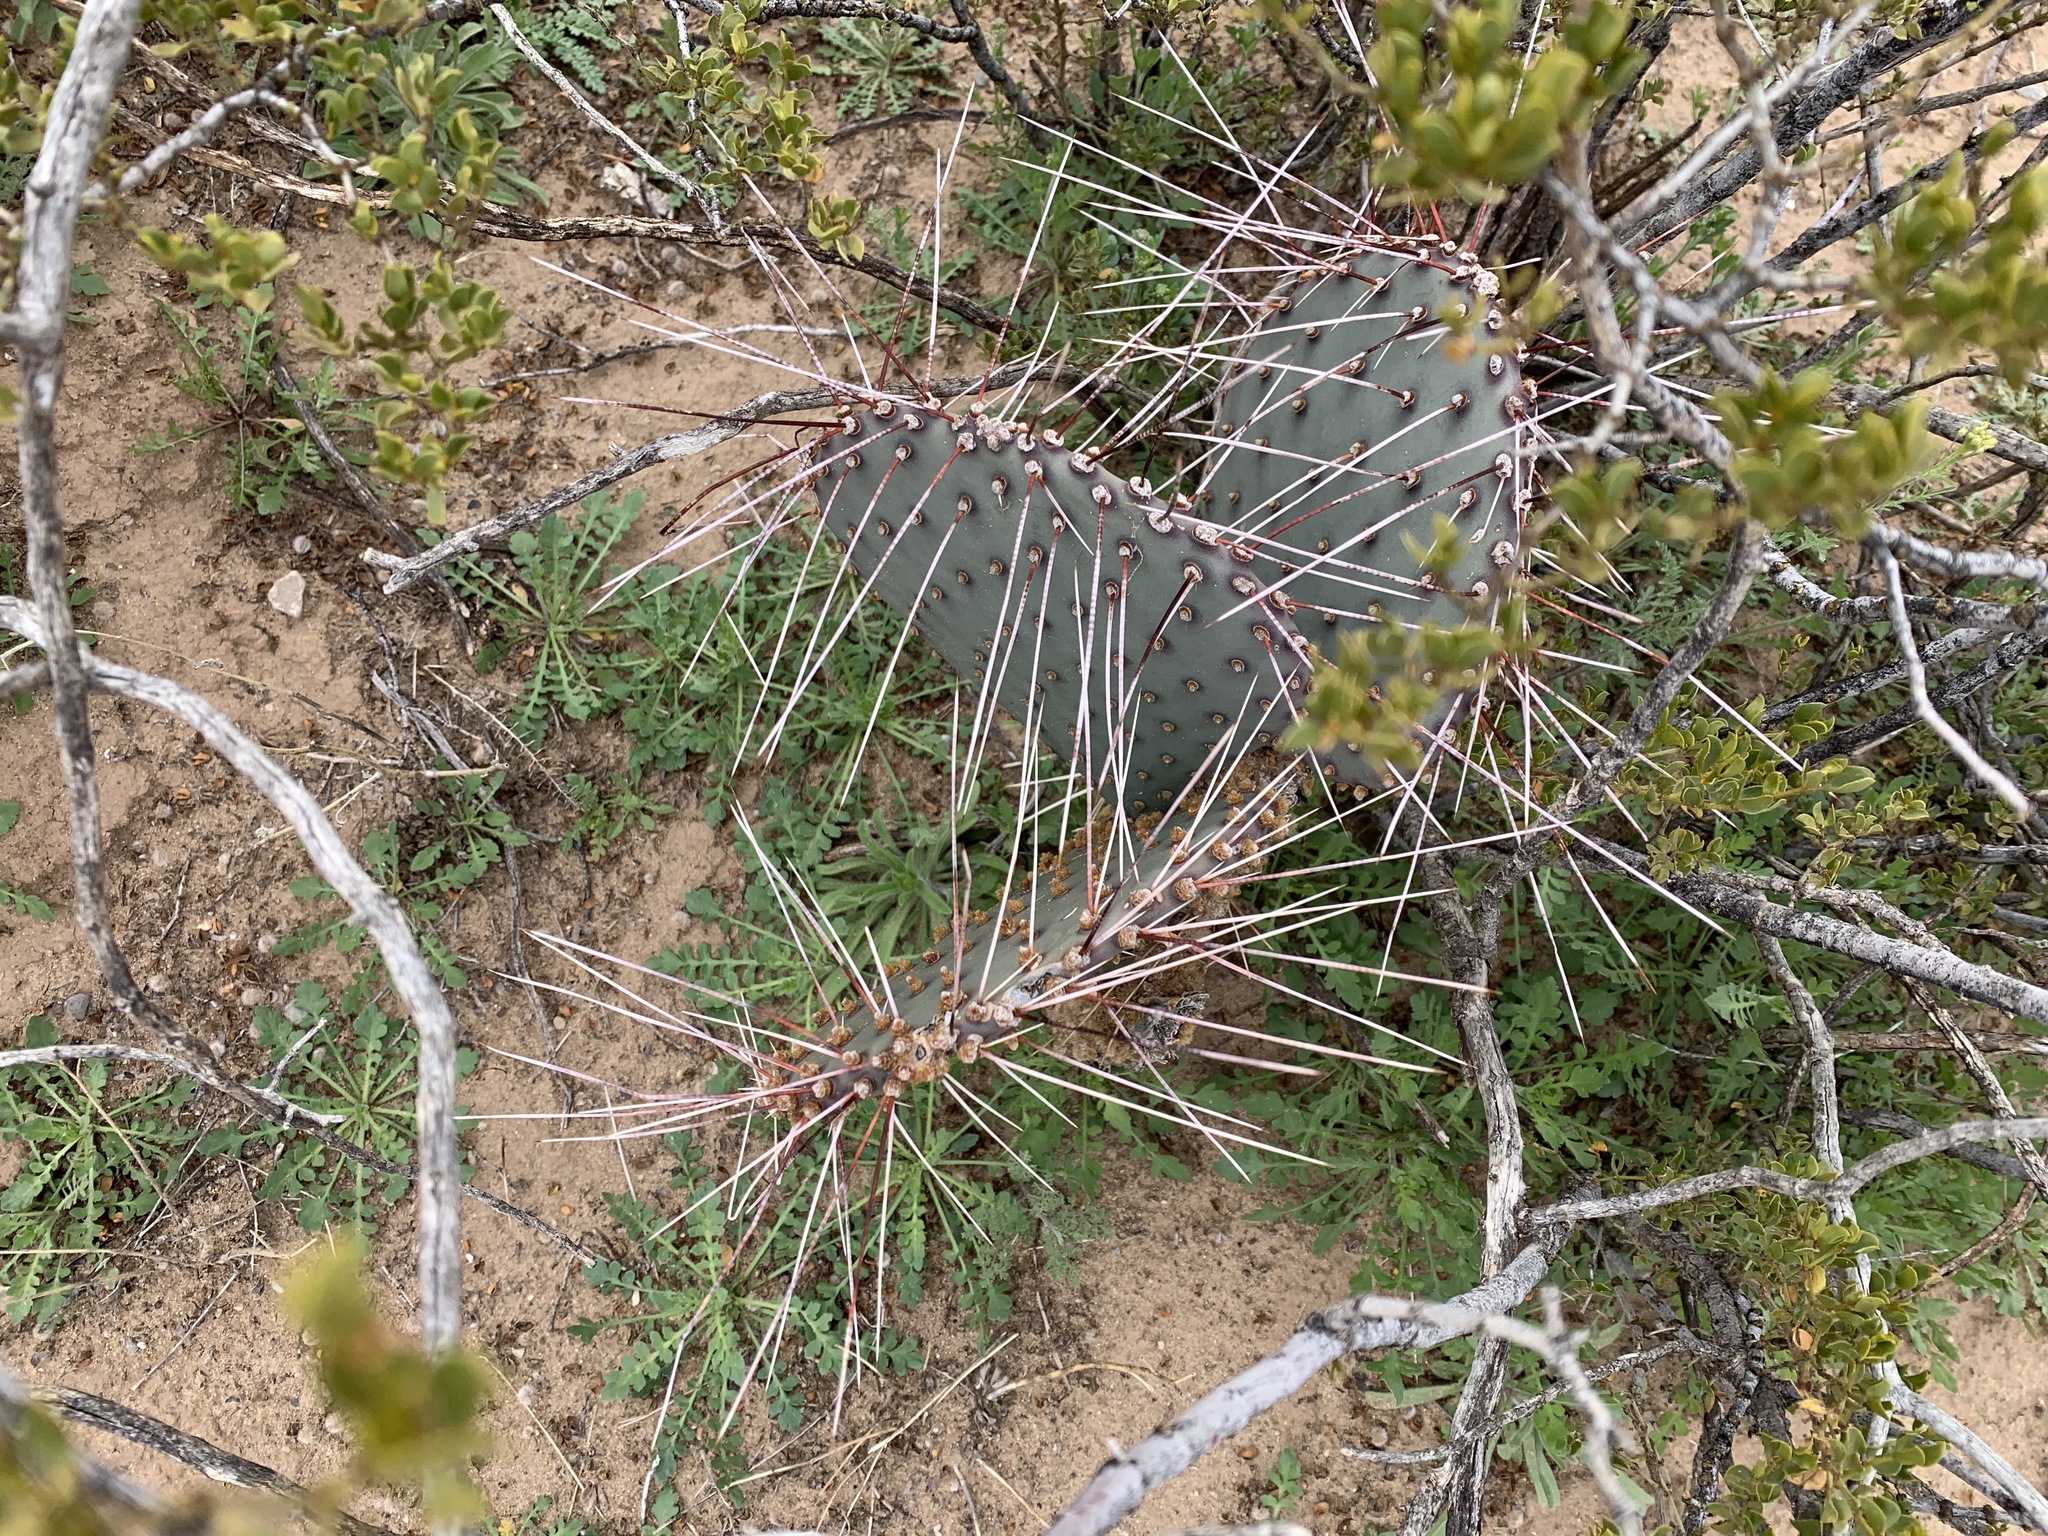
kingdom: Plantae
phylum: Tracheophyta
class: Magnoliopsida
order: Caryophyllales
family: Cactaceae
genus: Opuntia
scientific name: Opuntia macrocentra
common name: Purple prickly-pear
